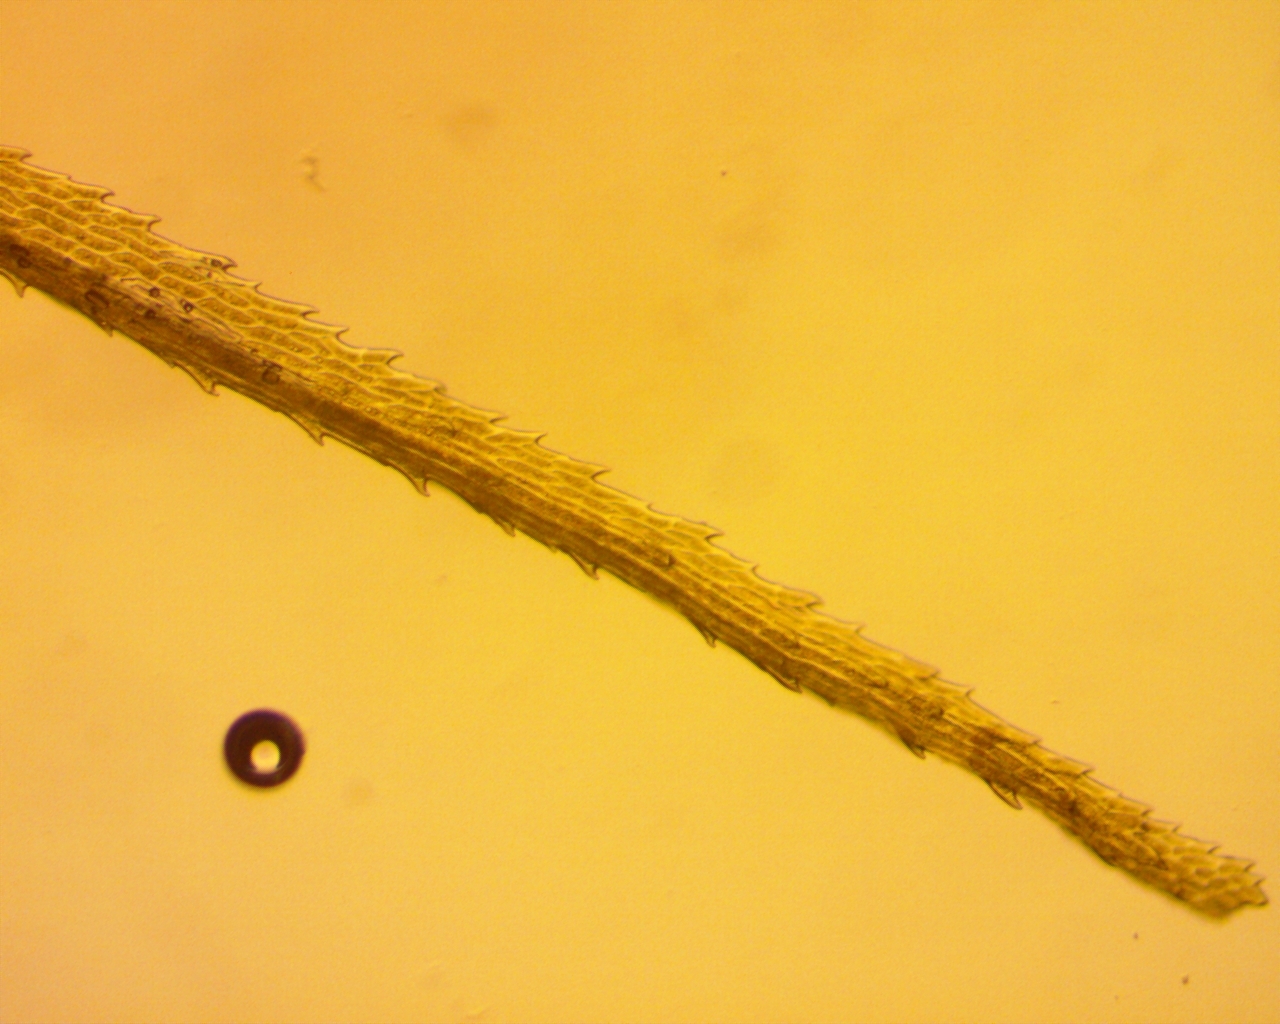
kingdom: Plantae
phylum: Bryophyta
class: Bryopsida
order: Dicranales
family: Dicranaceae
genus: Dicranum
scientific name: Dicranum scoparium
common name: Broom fork-moss
